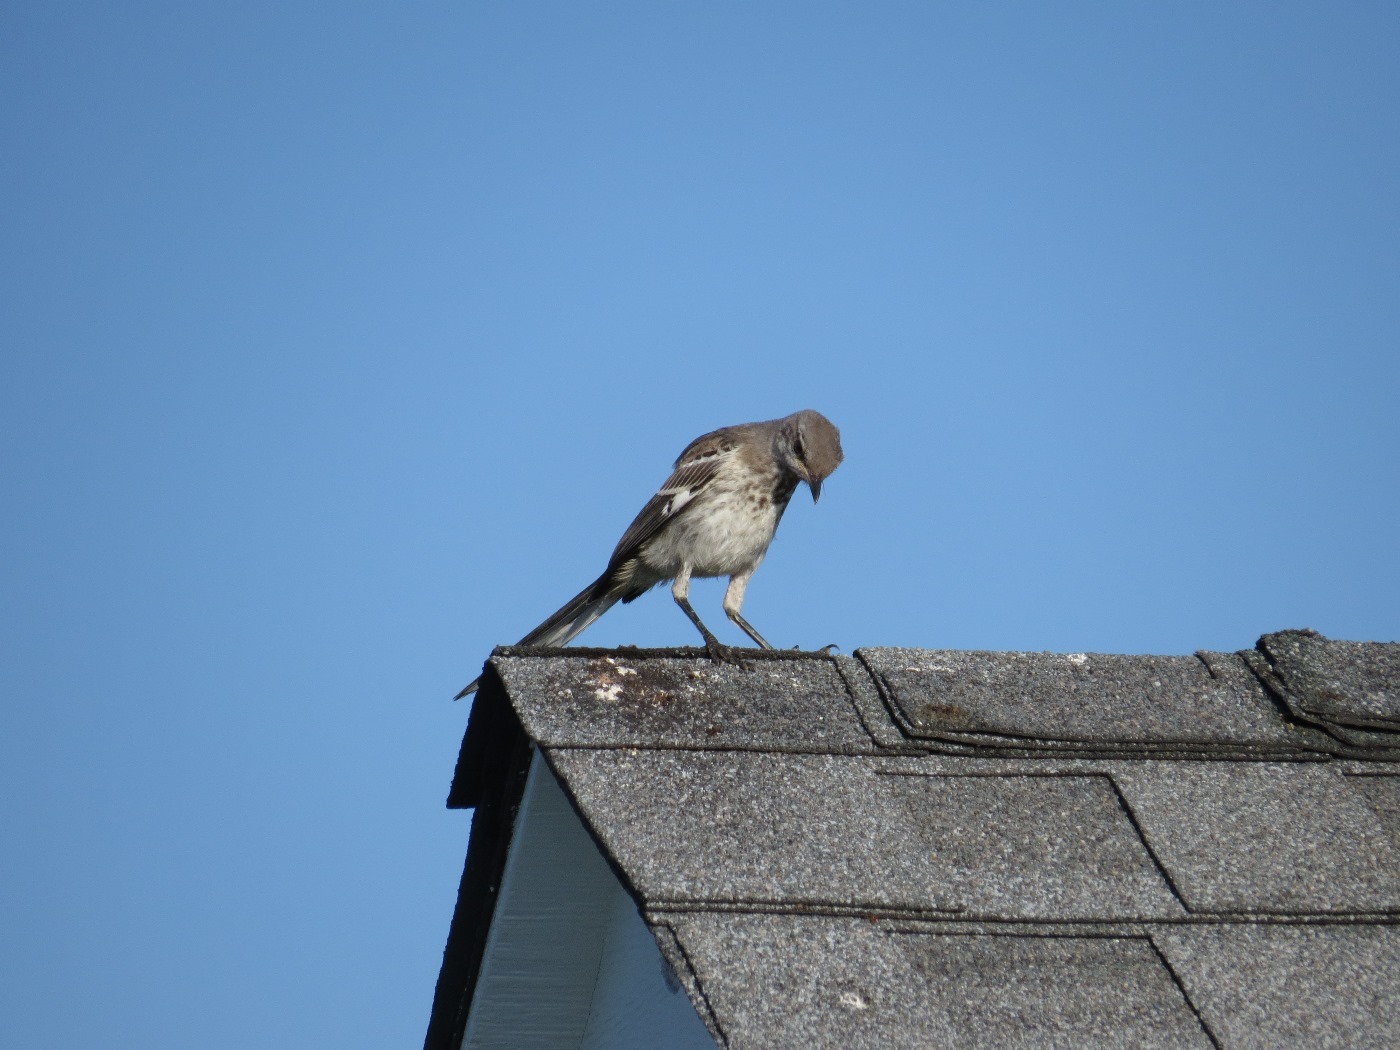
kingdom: Animalia
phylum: Chordata
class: Aves
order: Passeriformes
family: Mimidae
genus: Mimus
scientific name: Mimus polyglottos
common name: Northern mockingbird
